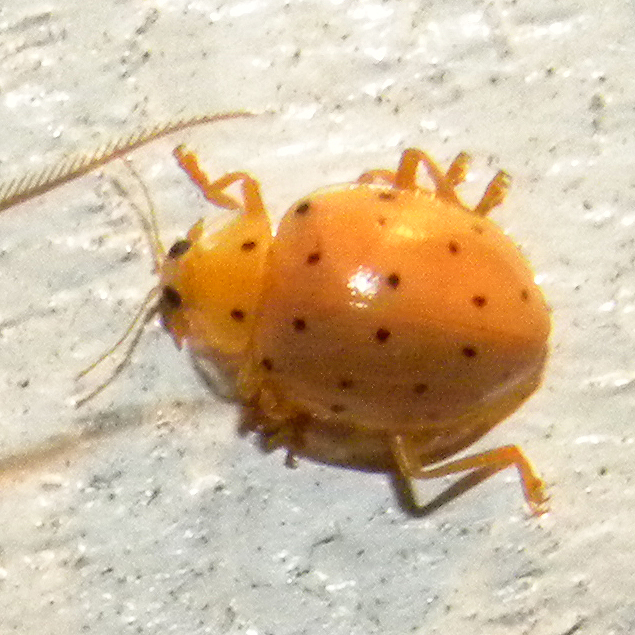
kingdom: Animalia
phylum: Arthropoda
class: Insecta
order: Coleoptera
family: Coccinellidae
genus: Neohalyzia
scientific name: Neohalyzia
